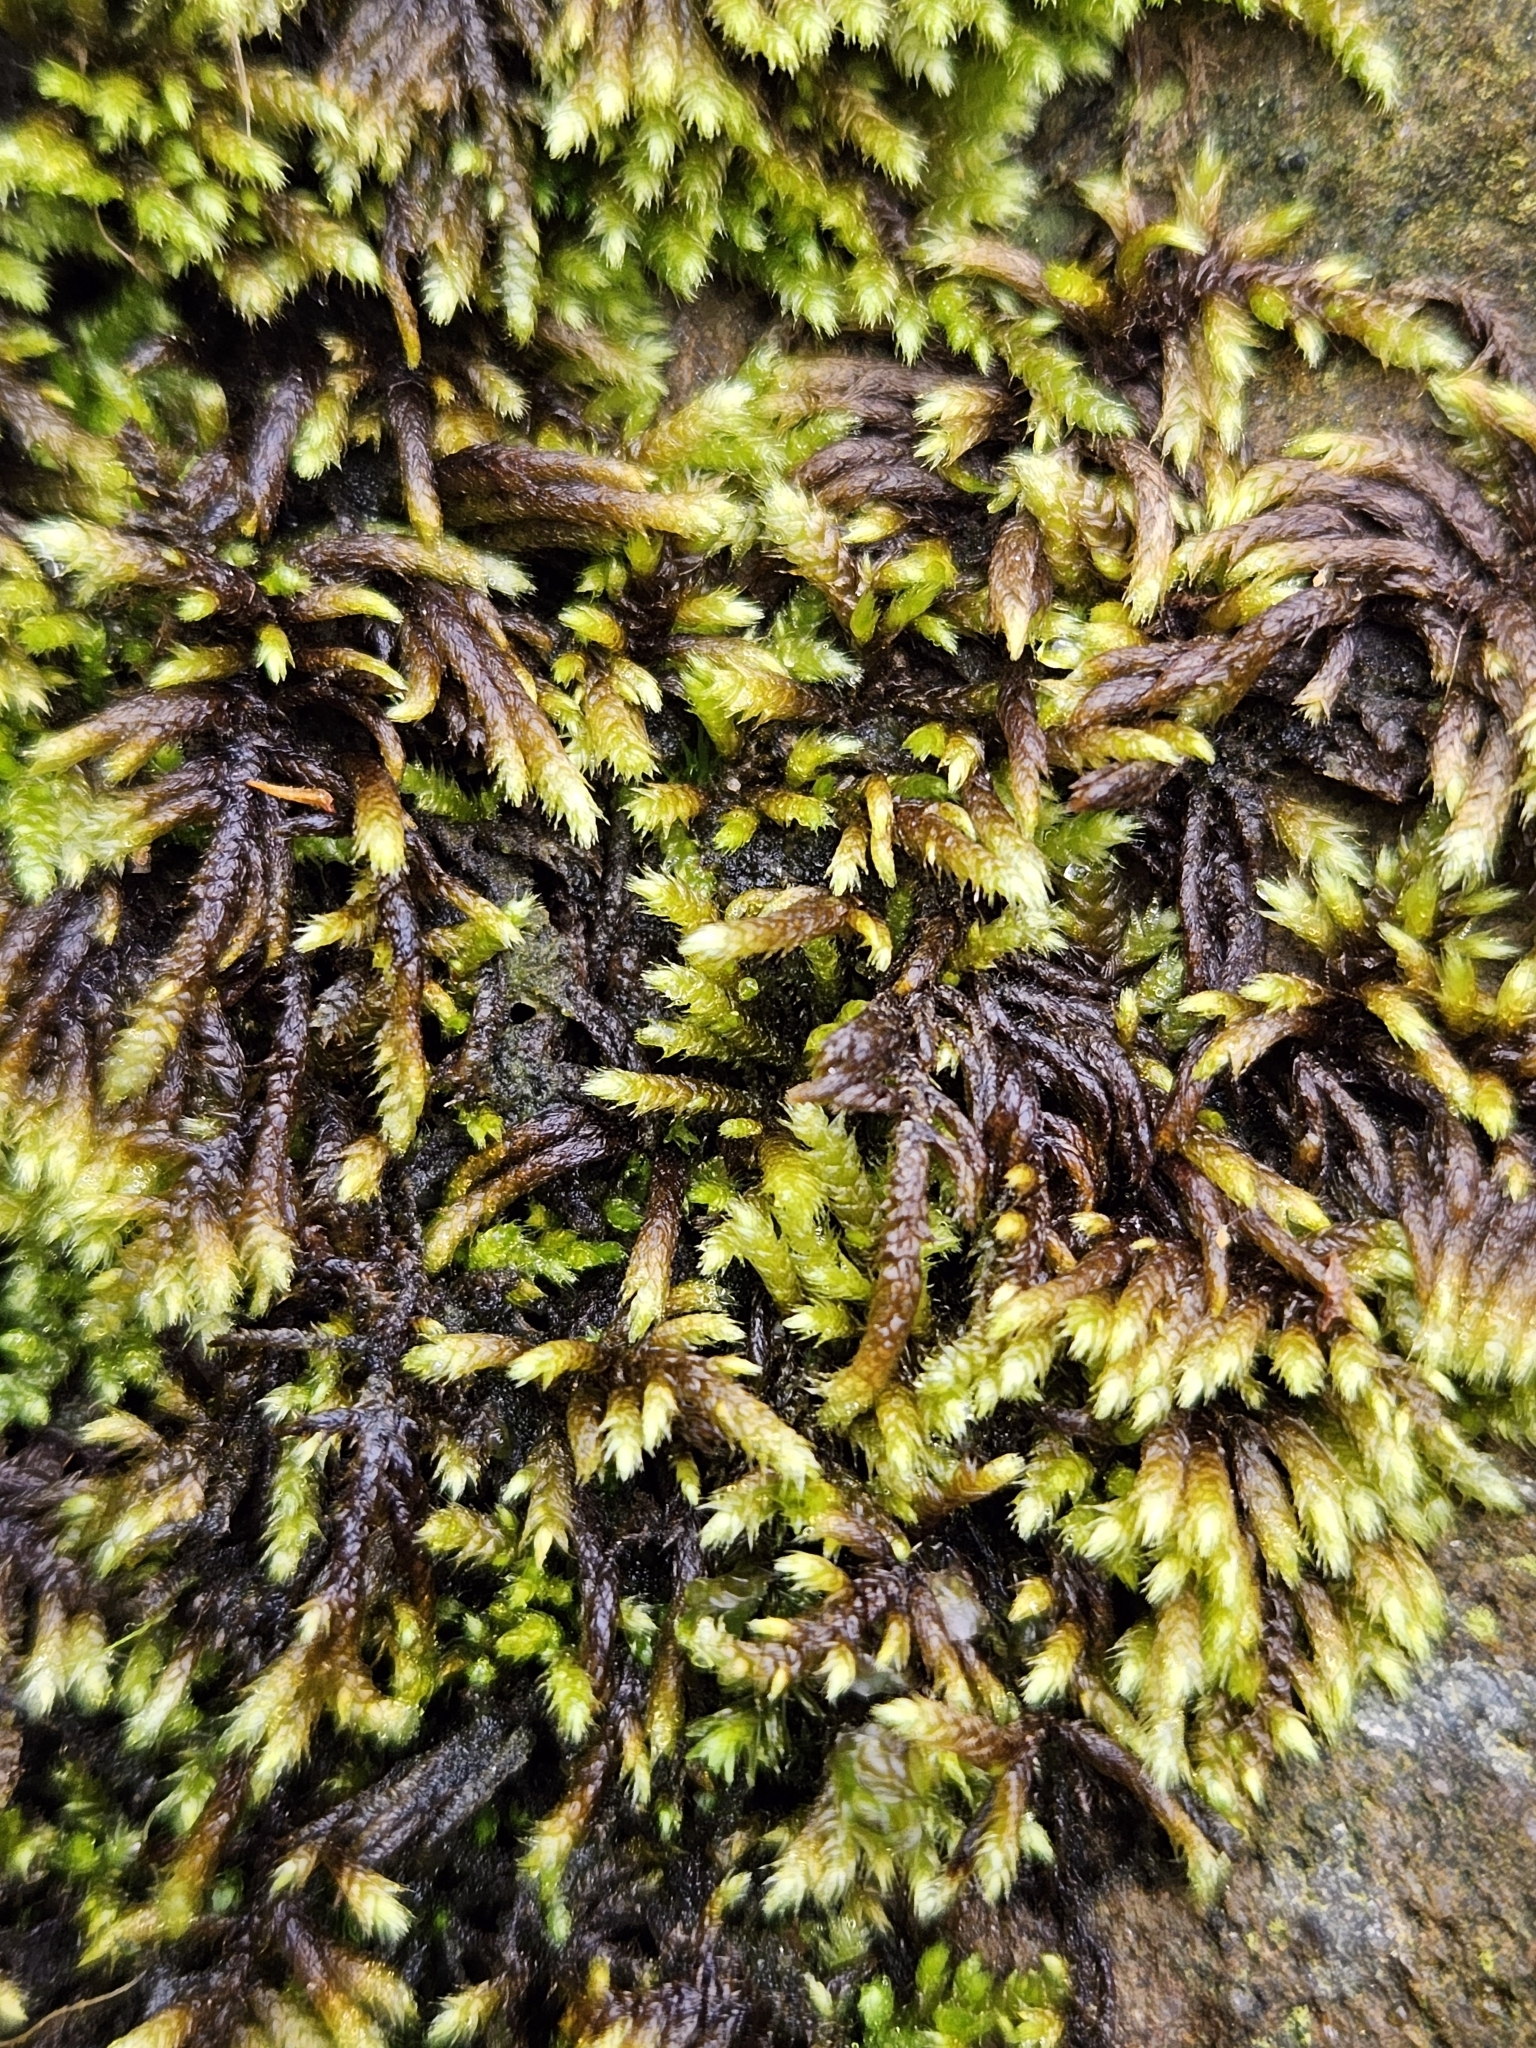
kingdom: Plantae
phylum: Bryophyta
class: Bryopsida
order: Hypnales
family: Myuriaceae
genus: Hyocomium
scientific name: Hyocomium armoricum
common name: Flagellate feather-moss
